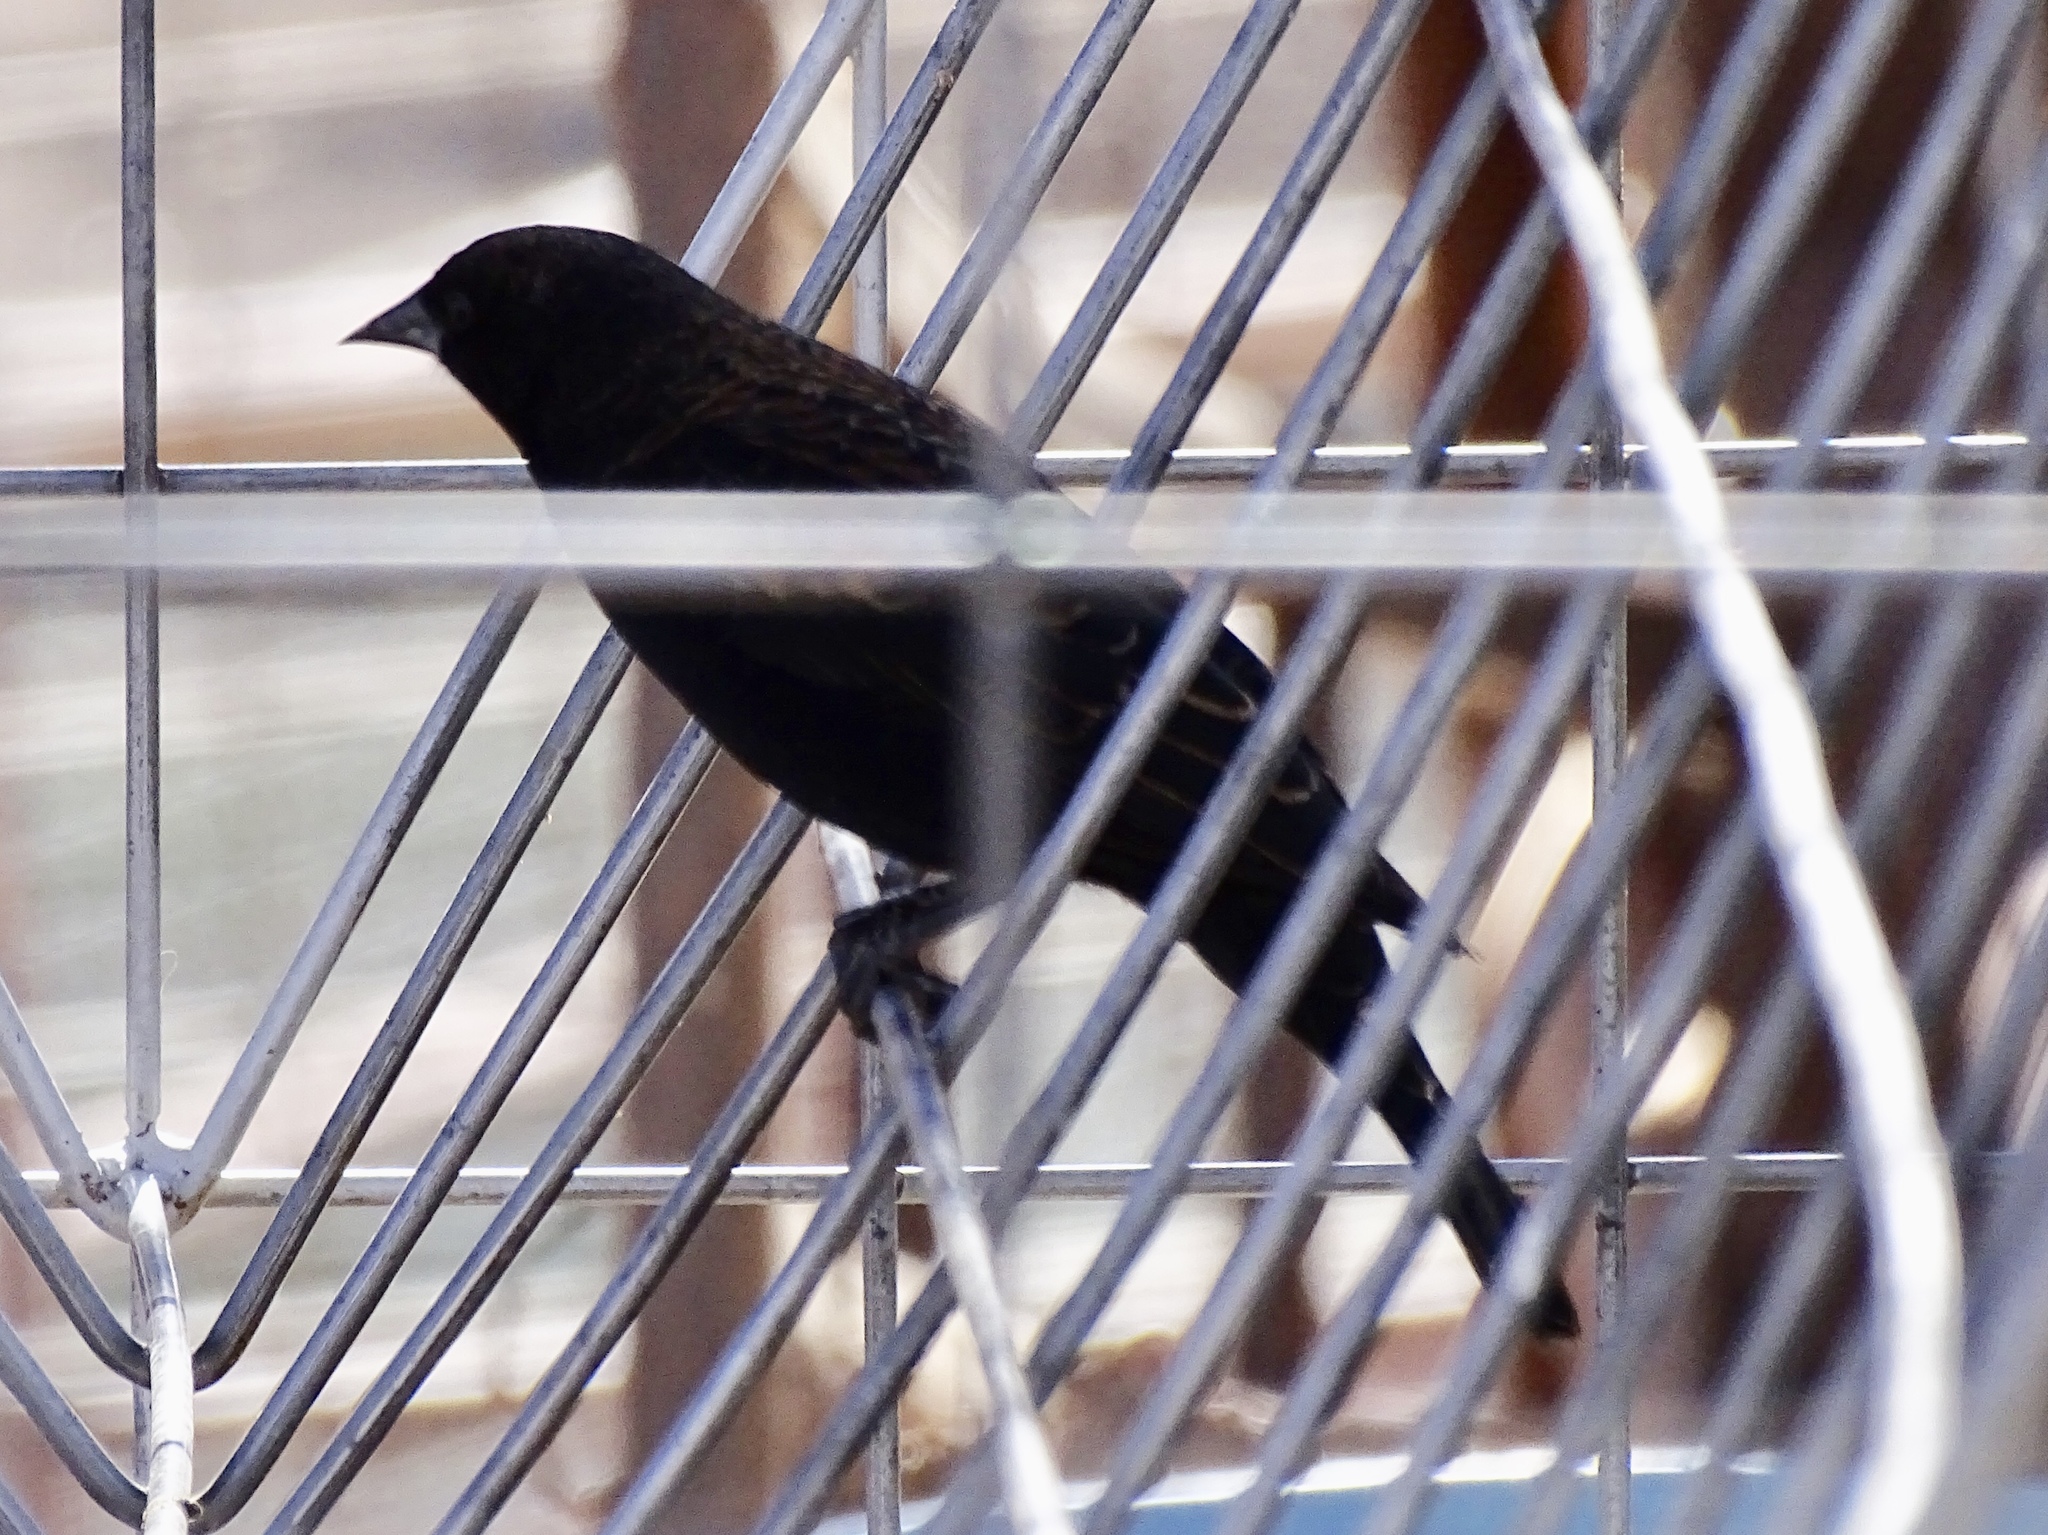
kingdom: Animalia
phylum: Chordata
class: Aves
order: Passeriformes
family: Icteridae
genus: Agelaius
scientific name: Agelaius phoeniceus
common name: Red-winged blackbird
